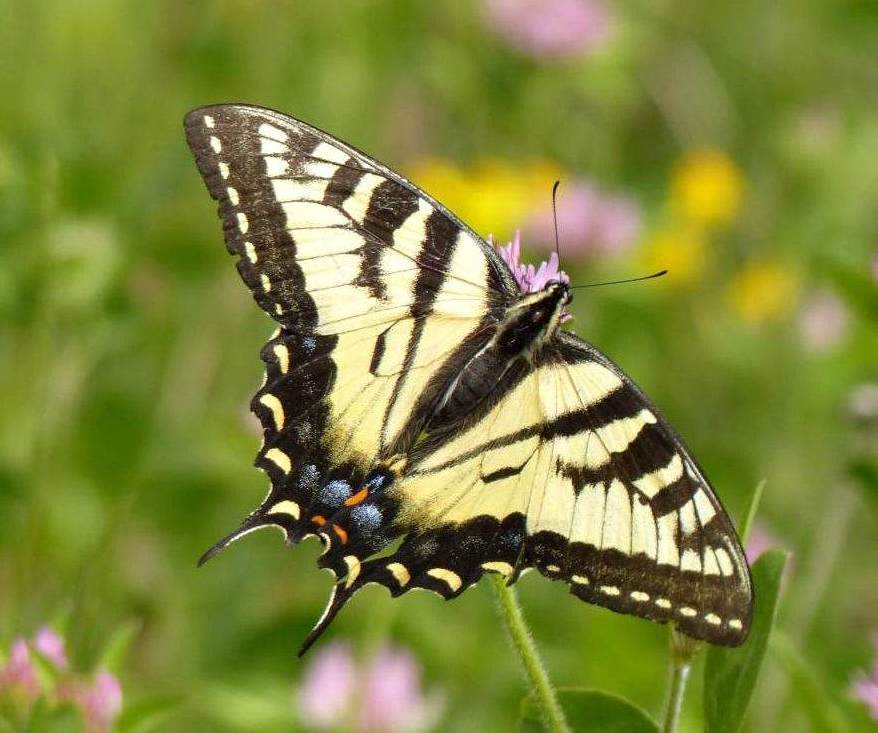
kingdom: Animalia
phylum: Arthropoda
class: Insecta
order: Lepidoptera
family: Papilionidae
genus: Papilio
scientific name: Papilio canadensis
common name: Canadian tiger swallowtail
